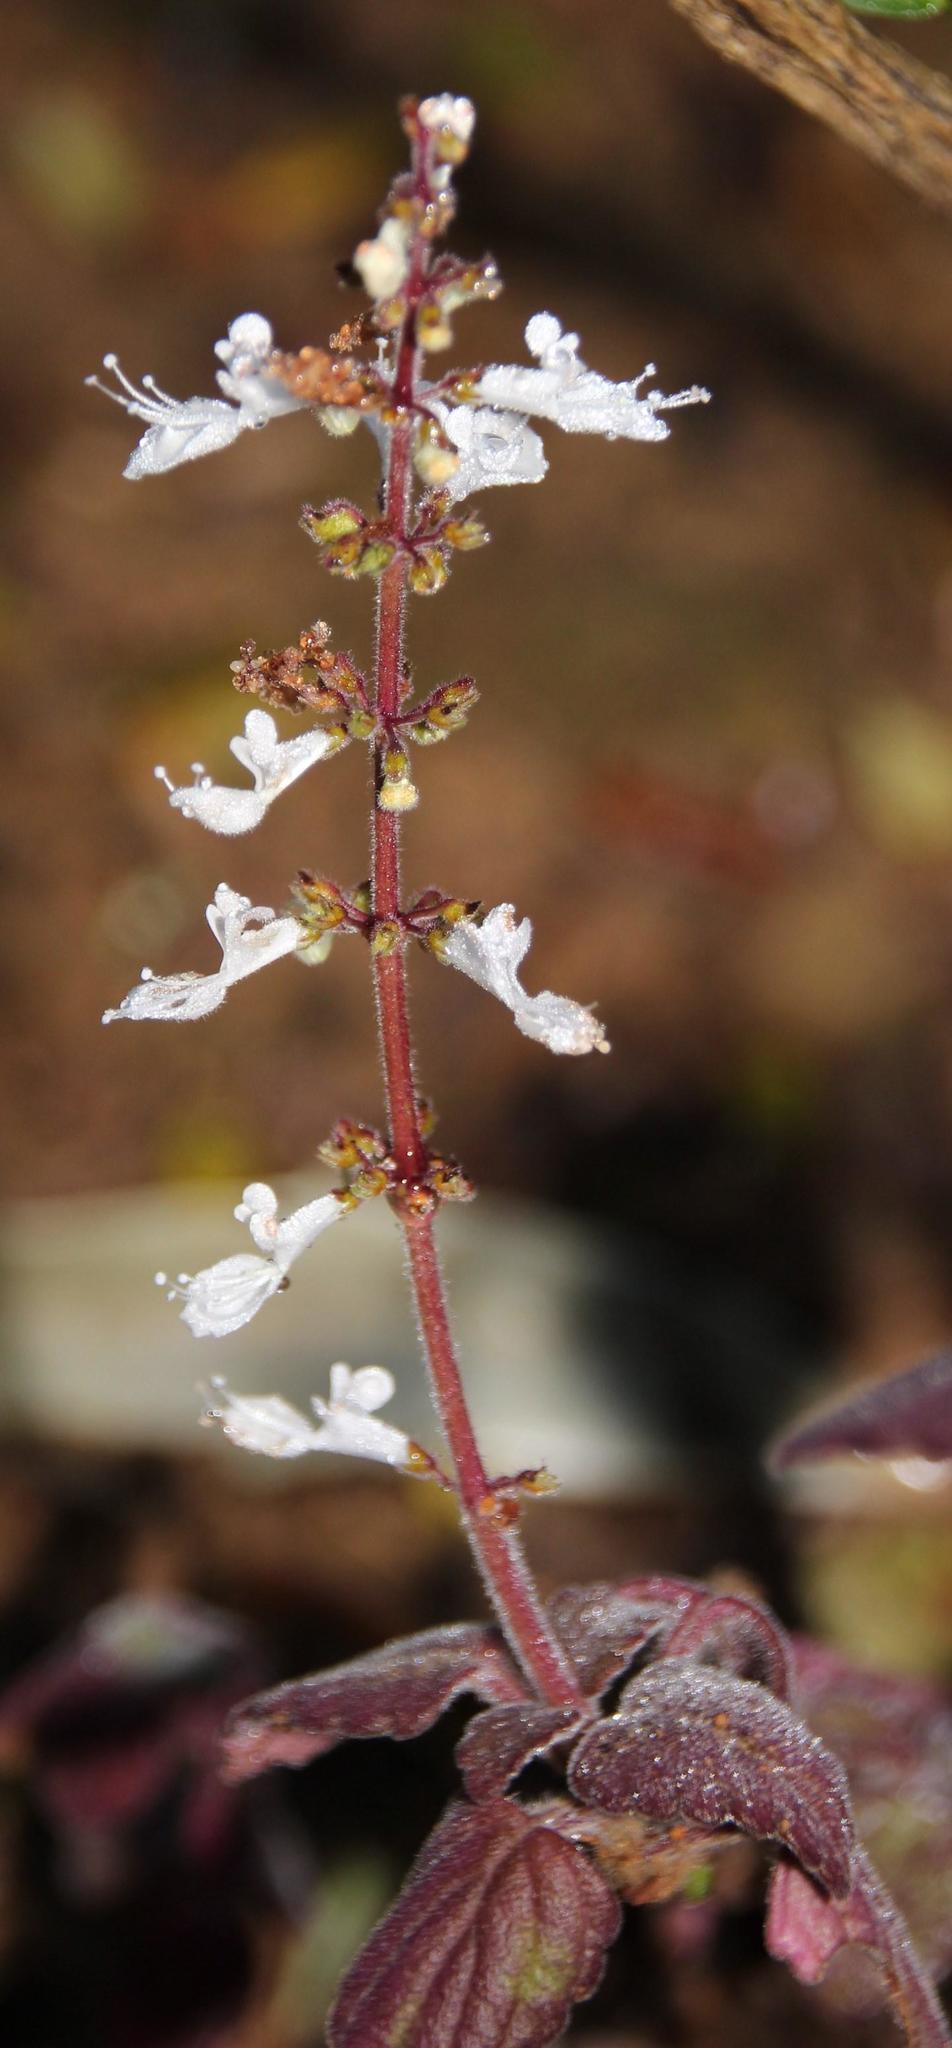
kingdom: Plantae
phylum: Tracheophyta
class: Magnoliopsida
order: Lamiales
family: Lamiaceae
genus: Coleus
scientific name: Coleus madagascariensis
